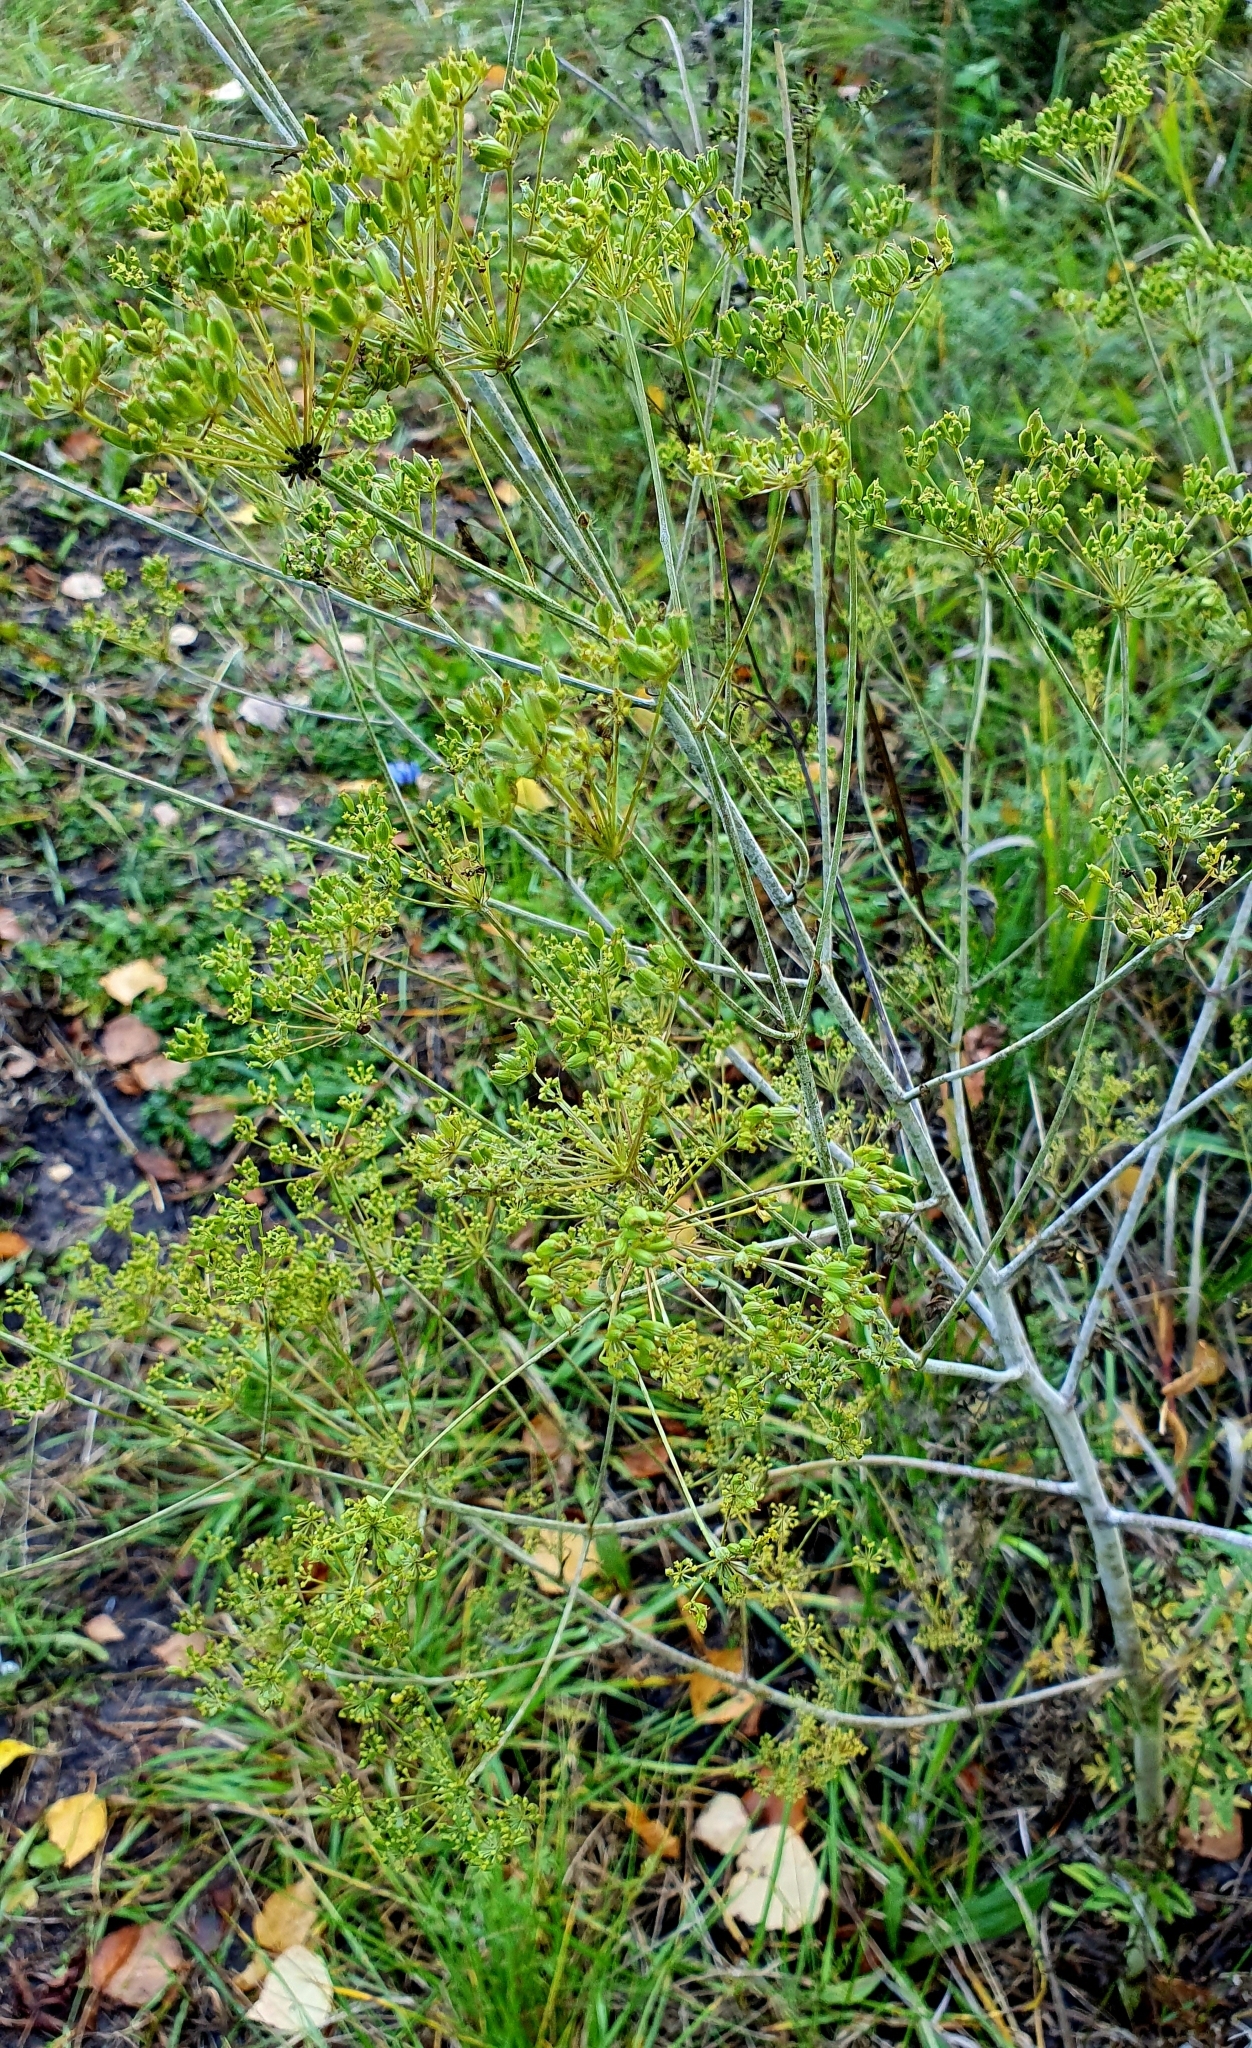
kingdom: Plantae
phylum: Tracheophyta
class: Magnoliopsida
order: Apiales
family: Apiaceae
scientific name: Apiaceae
